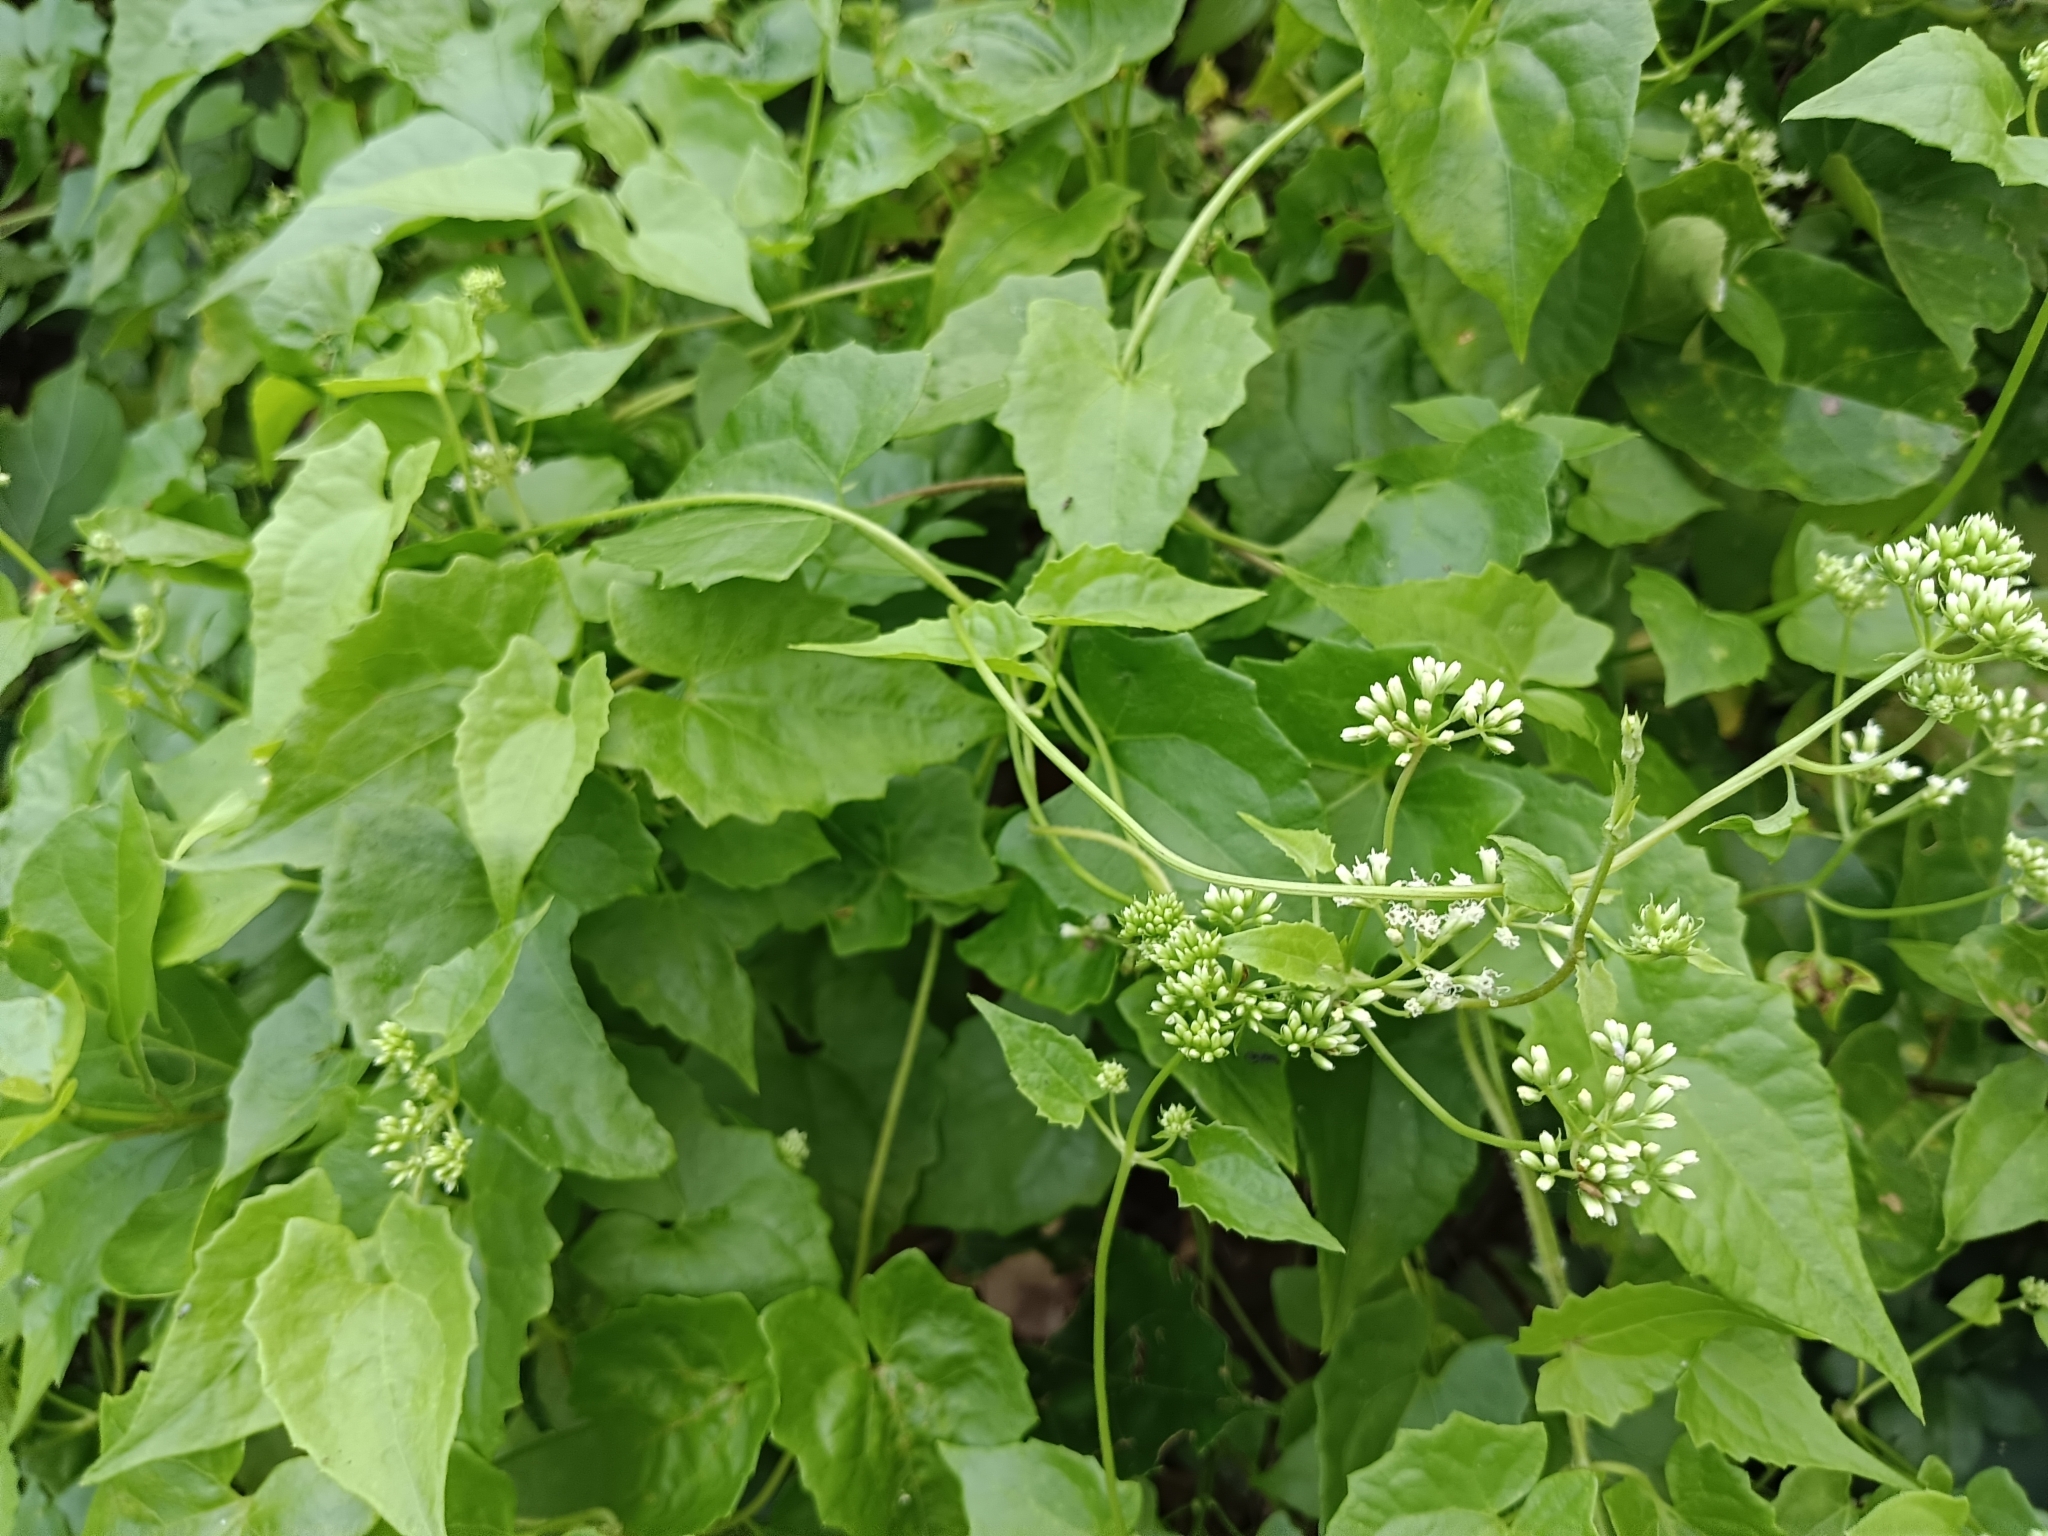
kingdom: Plantae
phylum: Tracheophyta
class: Magnoliopsida
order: Asterales
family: Asteraceae
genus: Mikania
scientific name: Mikania micrantha
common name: Mile-a-minute
